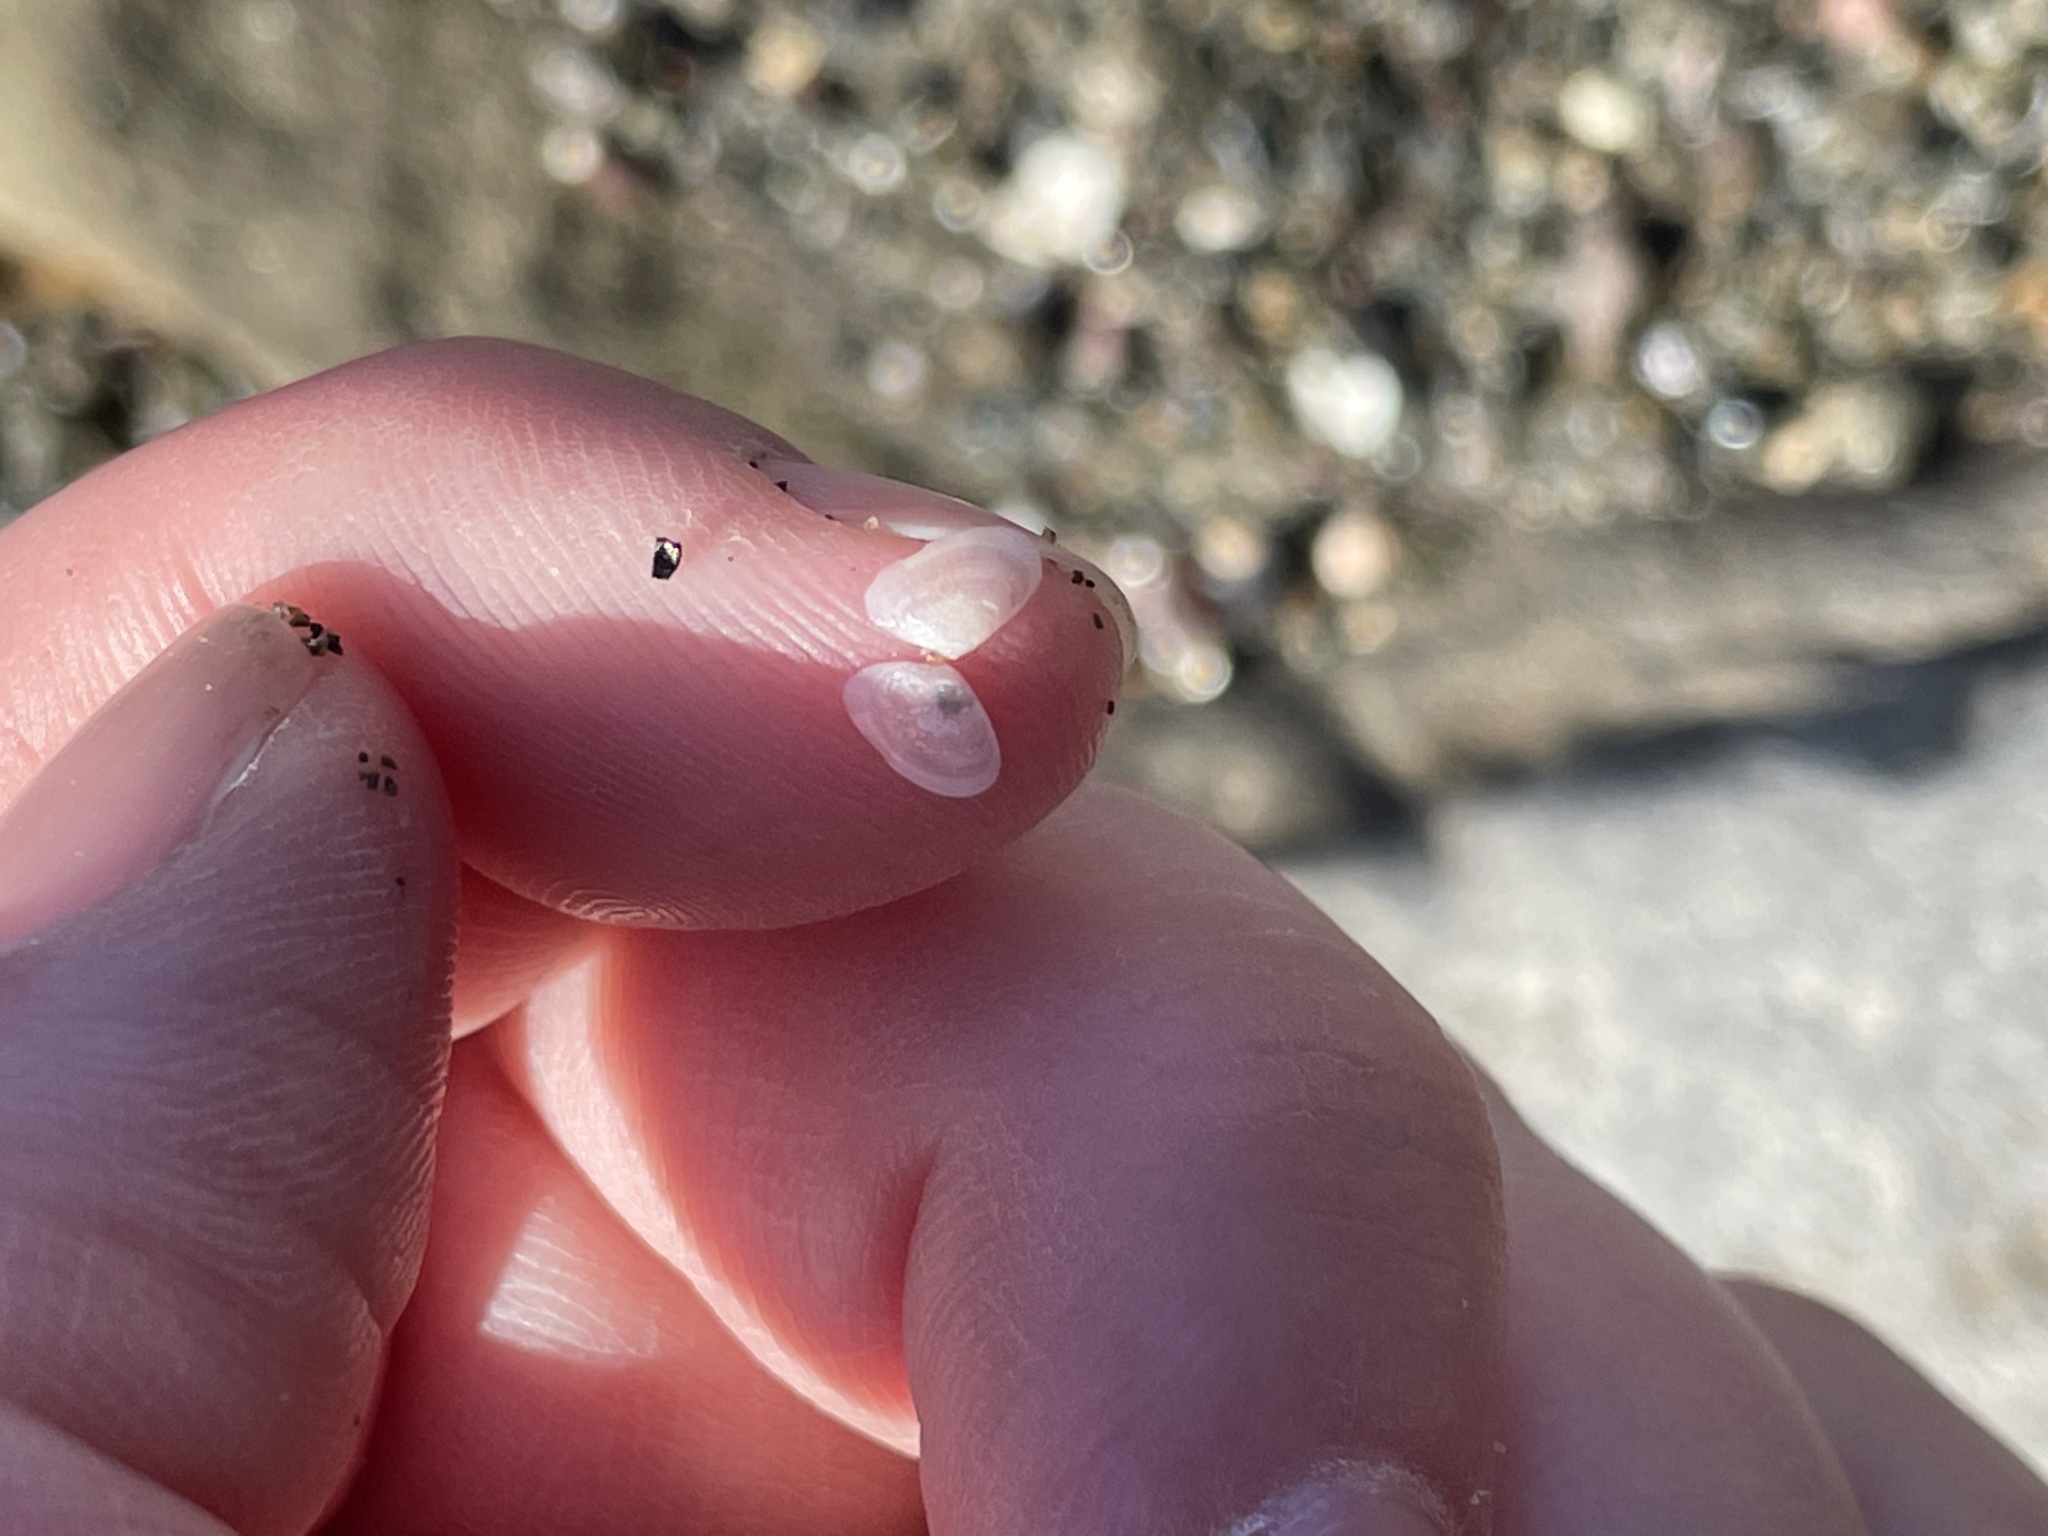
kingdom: Animalia
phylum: Mollusca
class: Bivalvia
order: Cardiida
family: Tellinidae
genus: Ameritella
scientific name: Ameritella agilis
